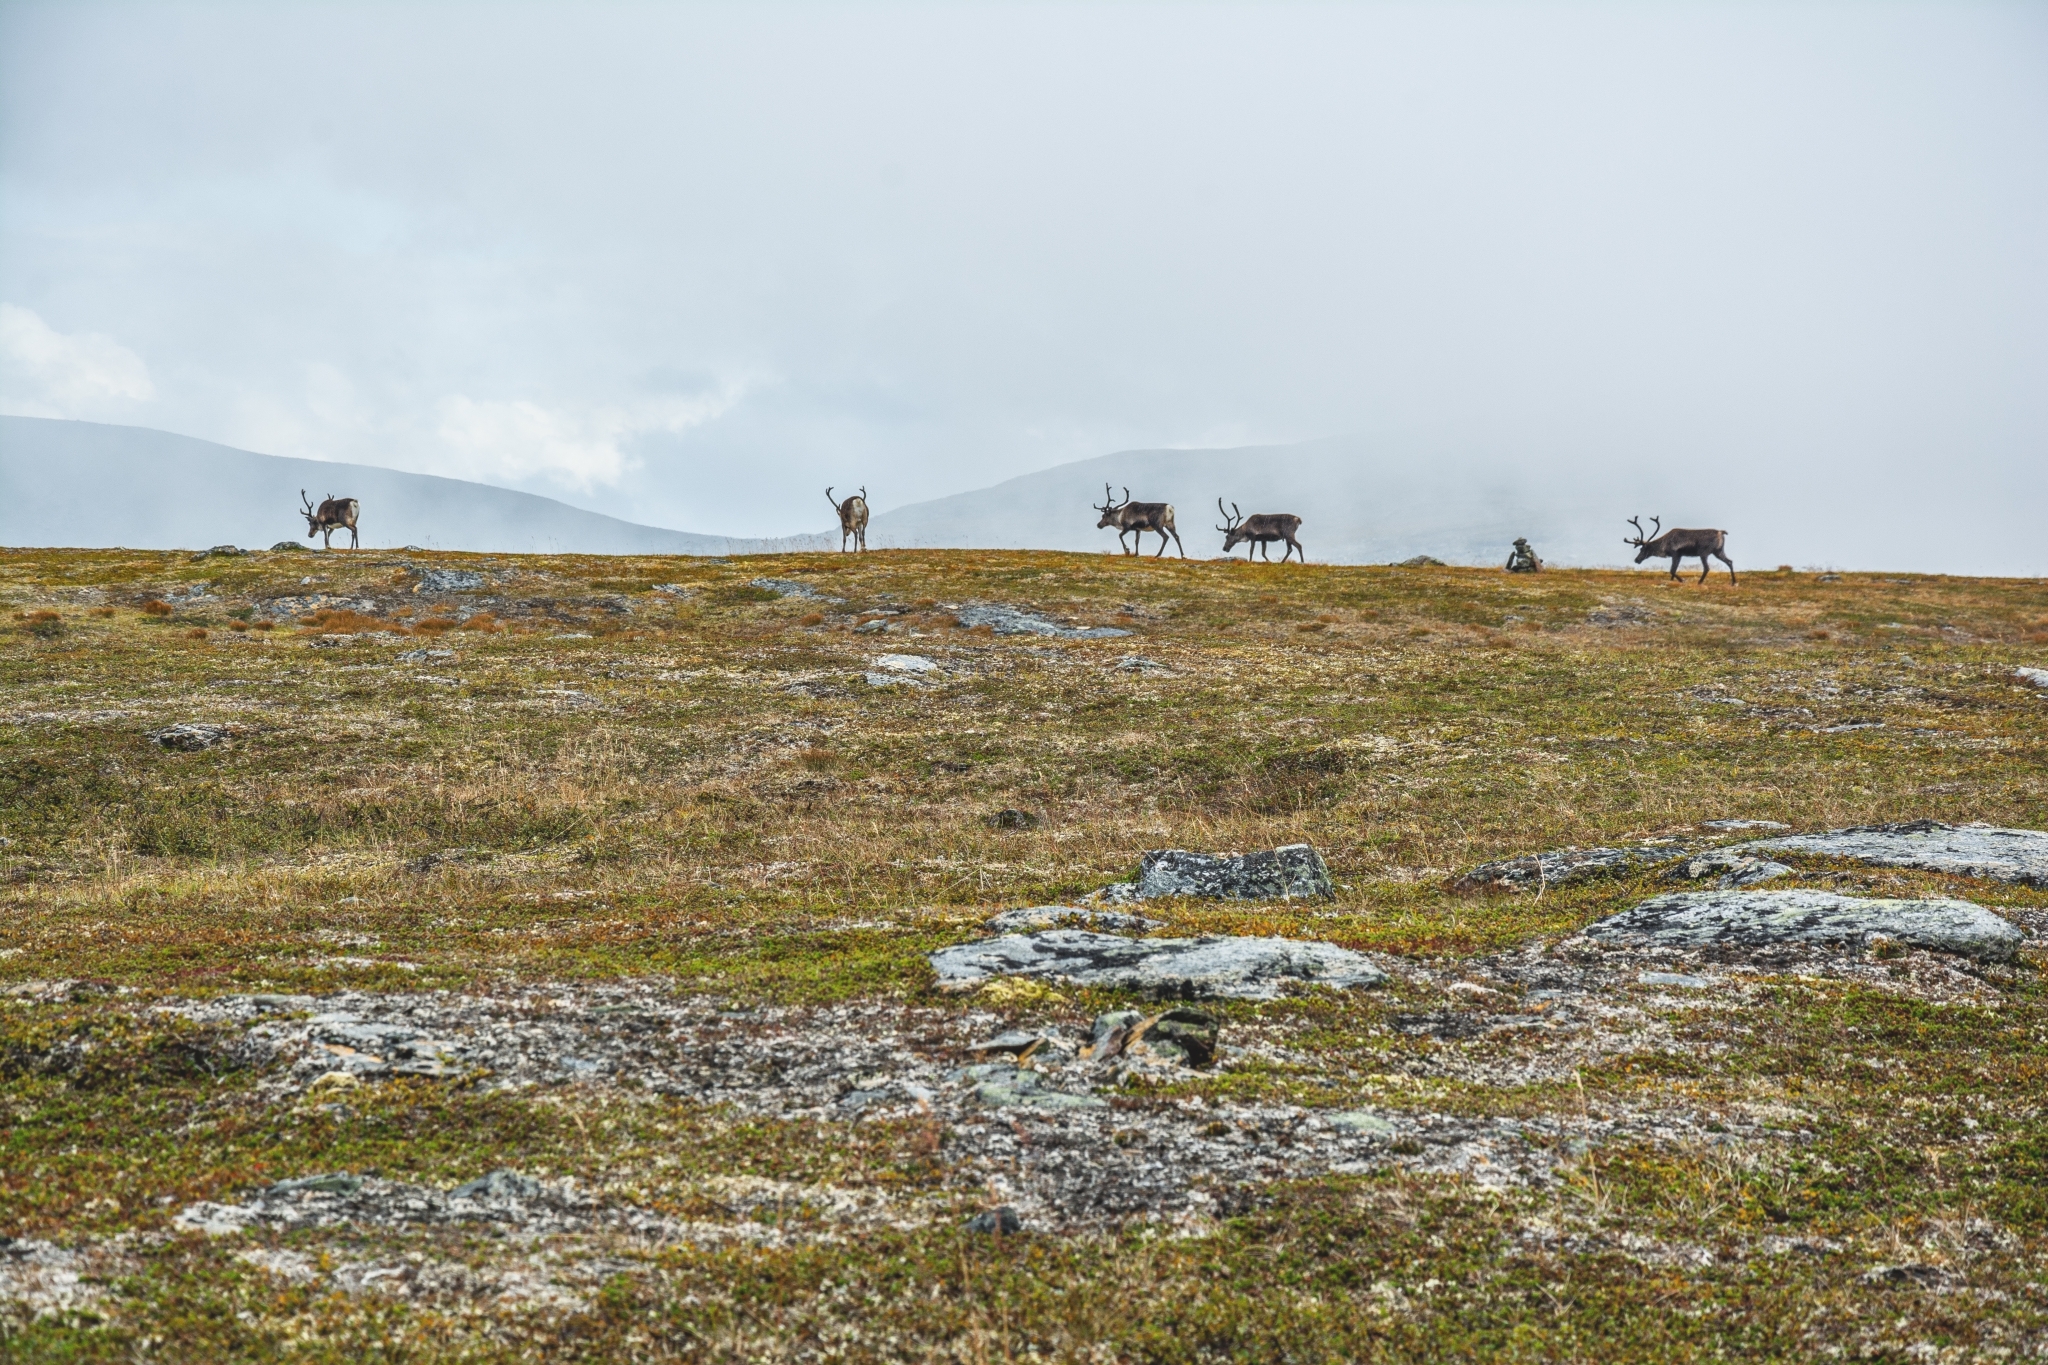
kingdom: Animalia
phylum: Chordata
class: Mammalia
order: Artiodactyla
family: Cervidae
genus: Rangifer
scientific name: Rangifer tarandus
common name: Reindeer
